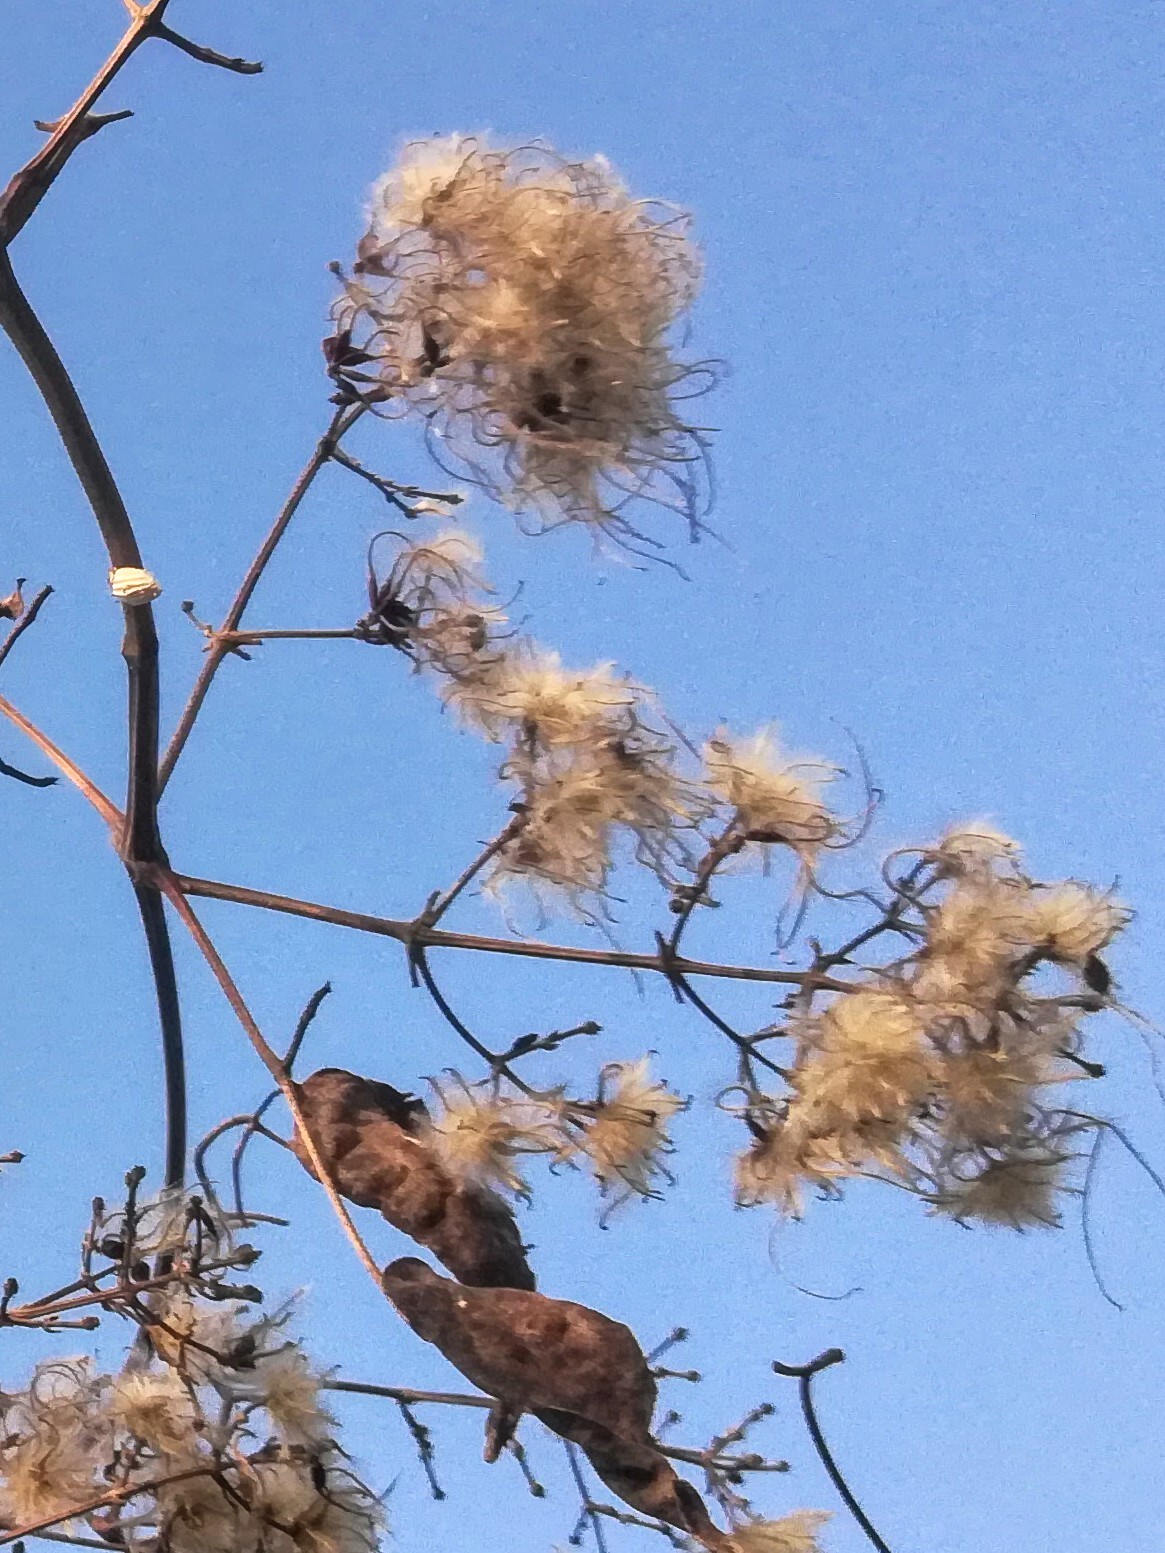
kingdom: Plantae
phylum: Tracheophyta
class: Magnoliopsida
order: Ranunculales
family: Ranunculaceae
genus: Clematis
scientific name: Clematis vitalba
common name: Evergreen clematis
